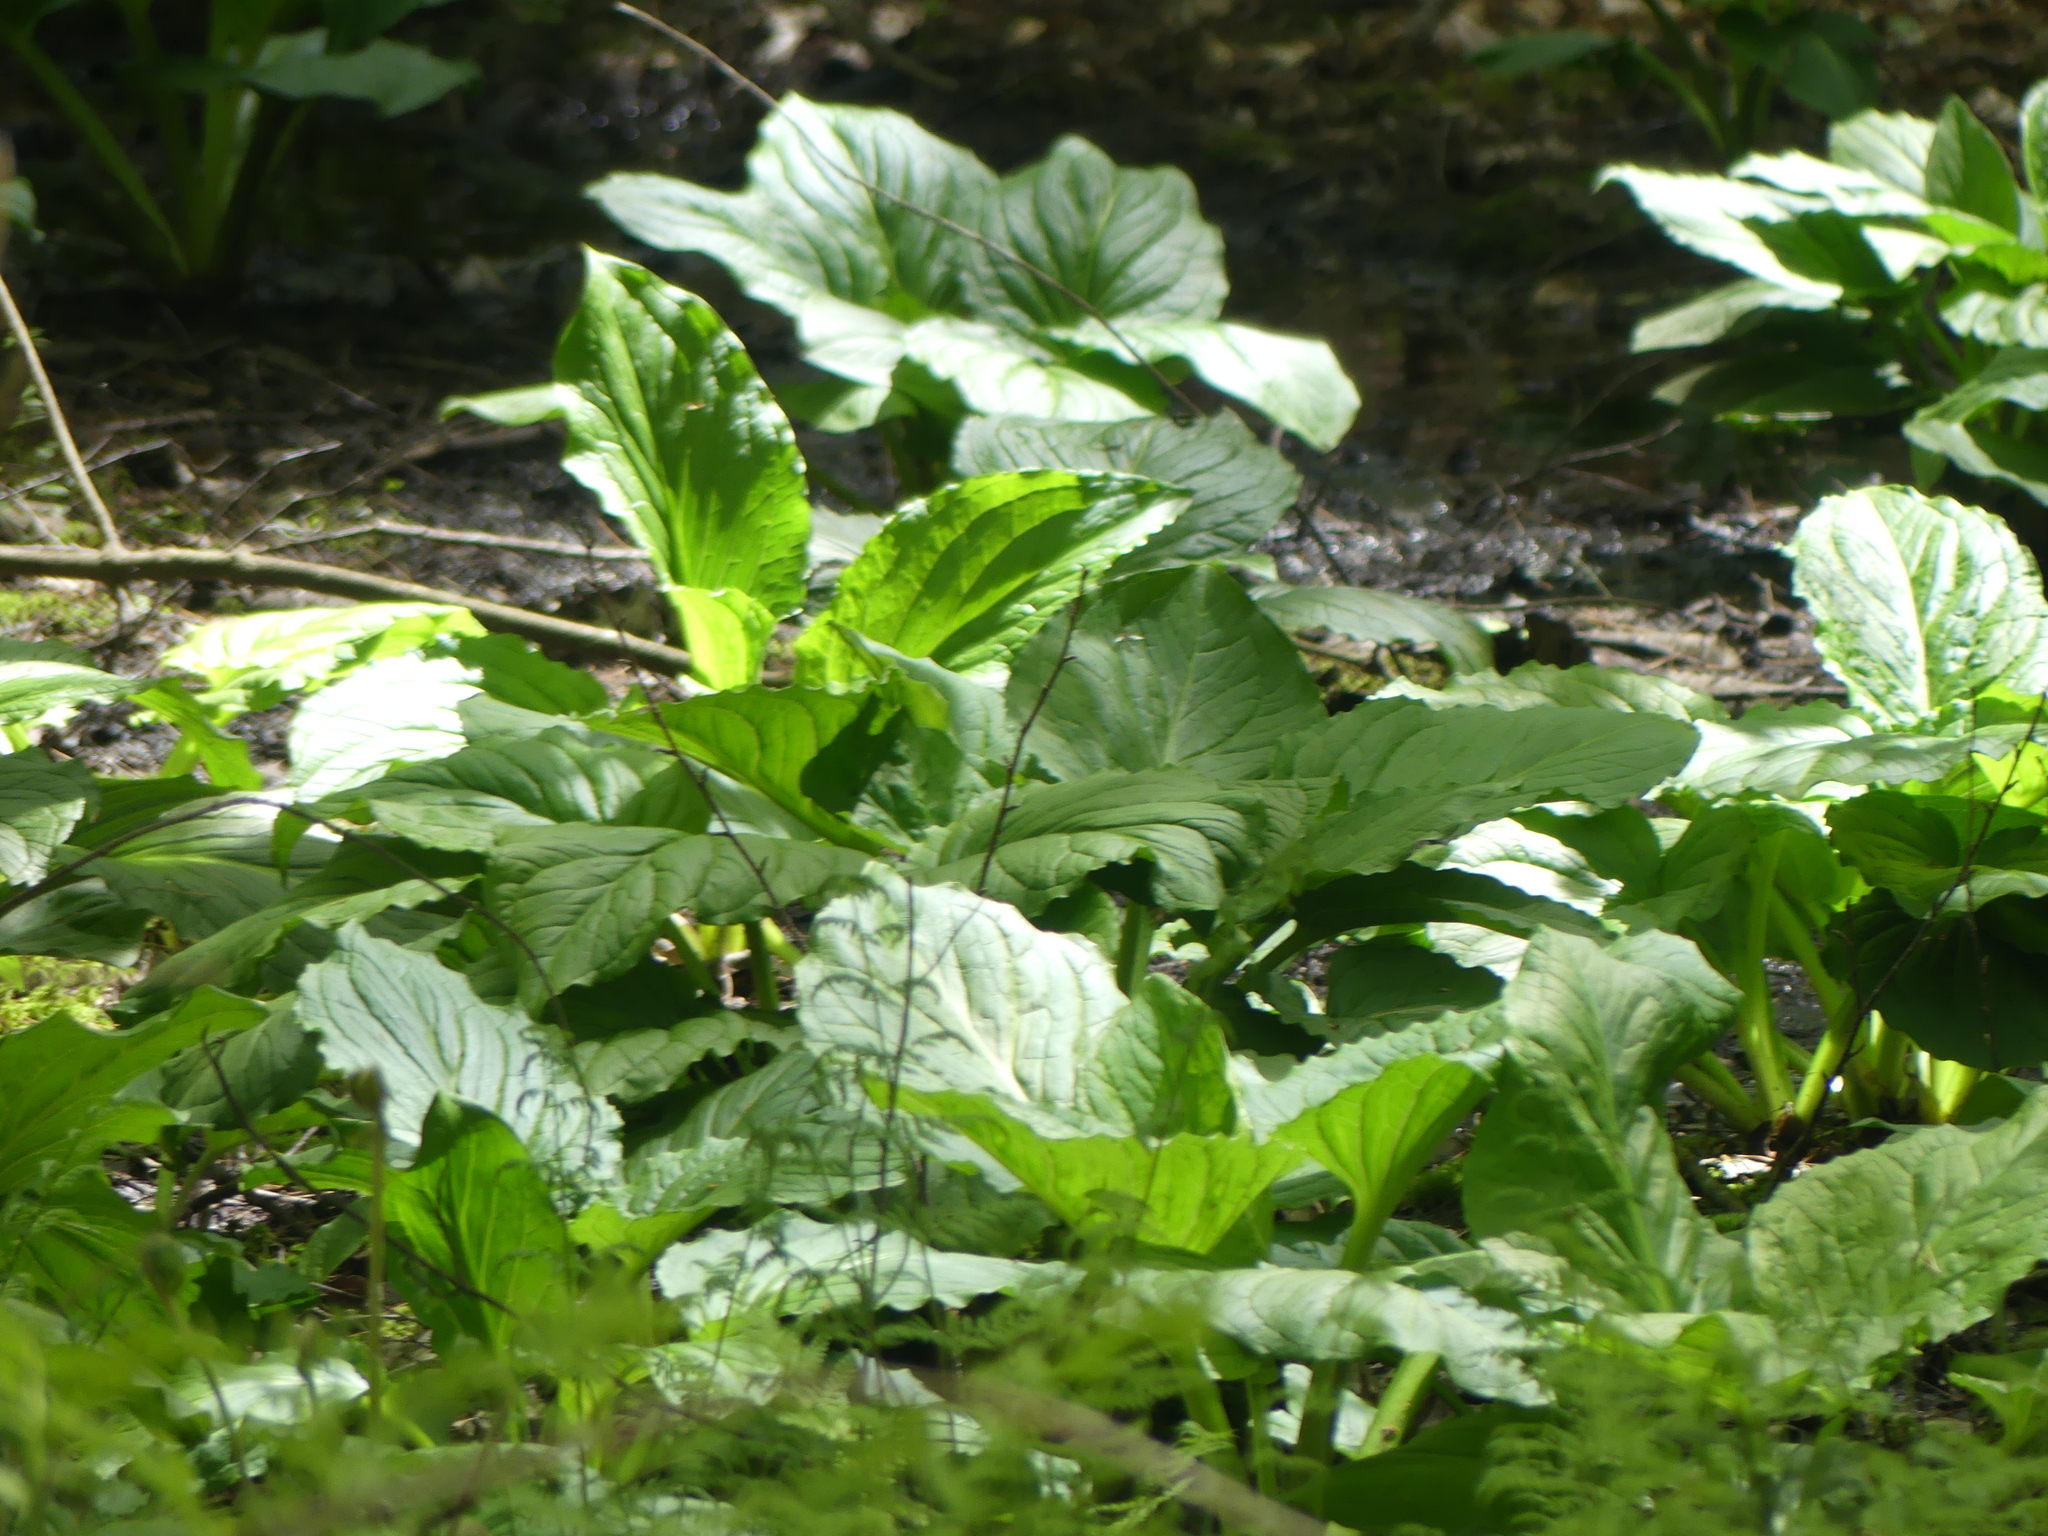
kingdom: Plantae
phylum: Tracheophyta
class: Liliopsida
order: Alismatales
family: Araceae
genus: Symplocarpus
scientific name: Symplocarpus foetidus
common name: Eastern skunk cabbage
